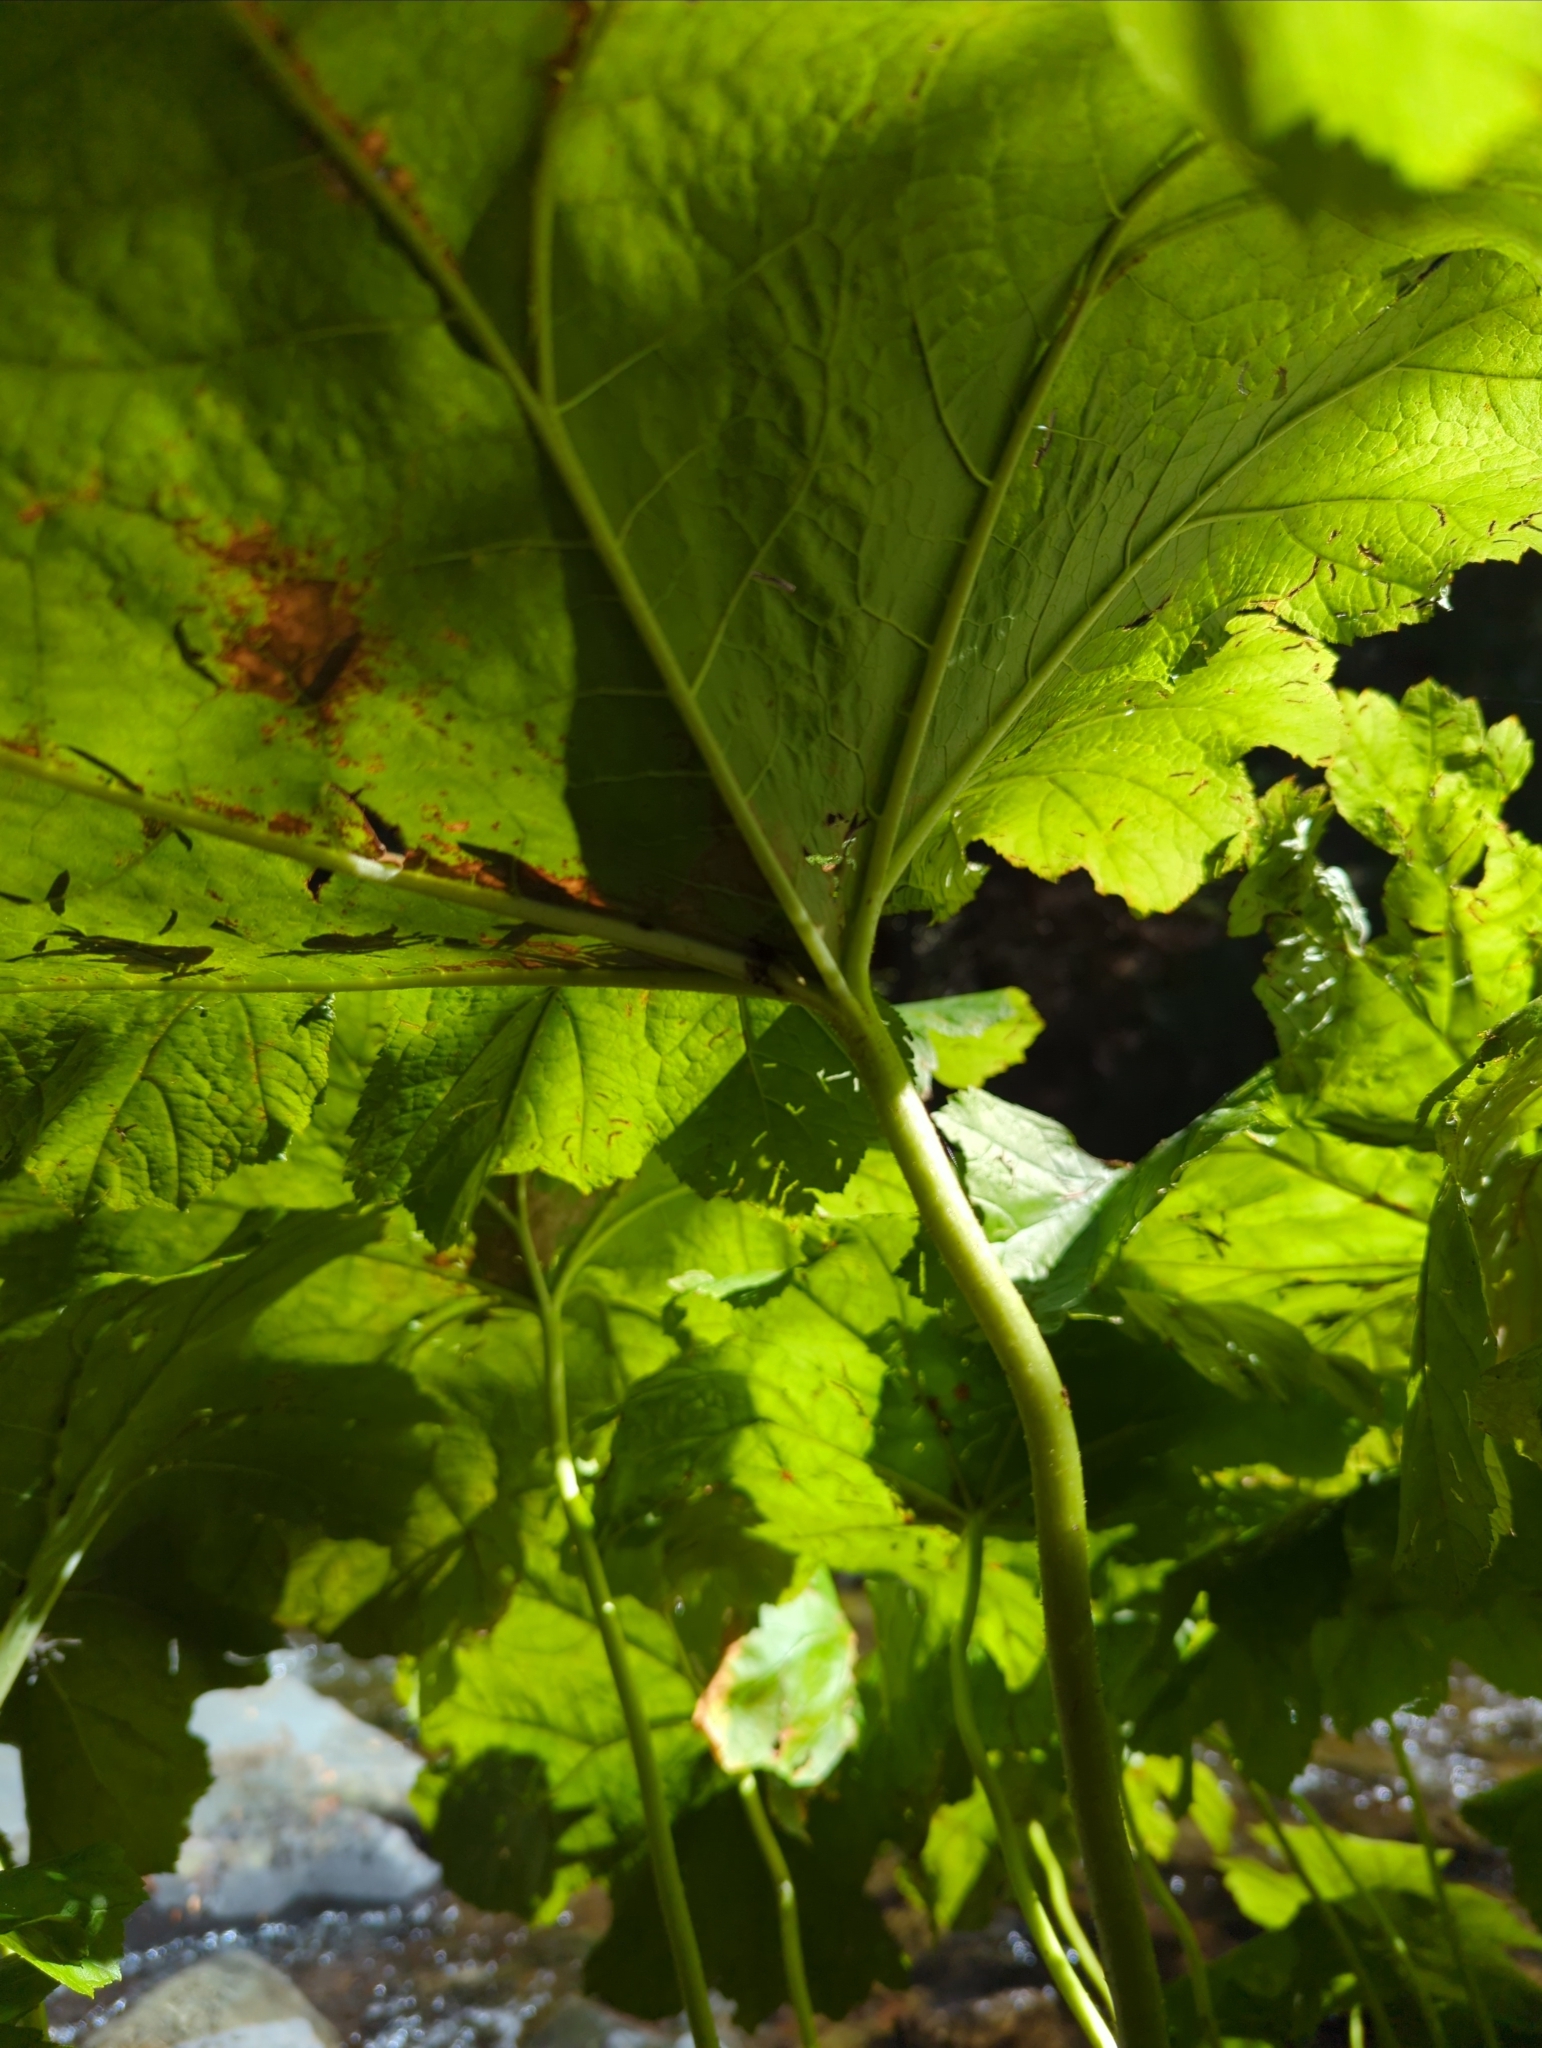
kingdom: Plantae
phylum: Tracheophyta
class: Magnoliopsida
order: Saxifragales
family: Saxifragaceae
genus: Darmera
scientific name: Darmera peltata
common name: Indian-rhubarb
